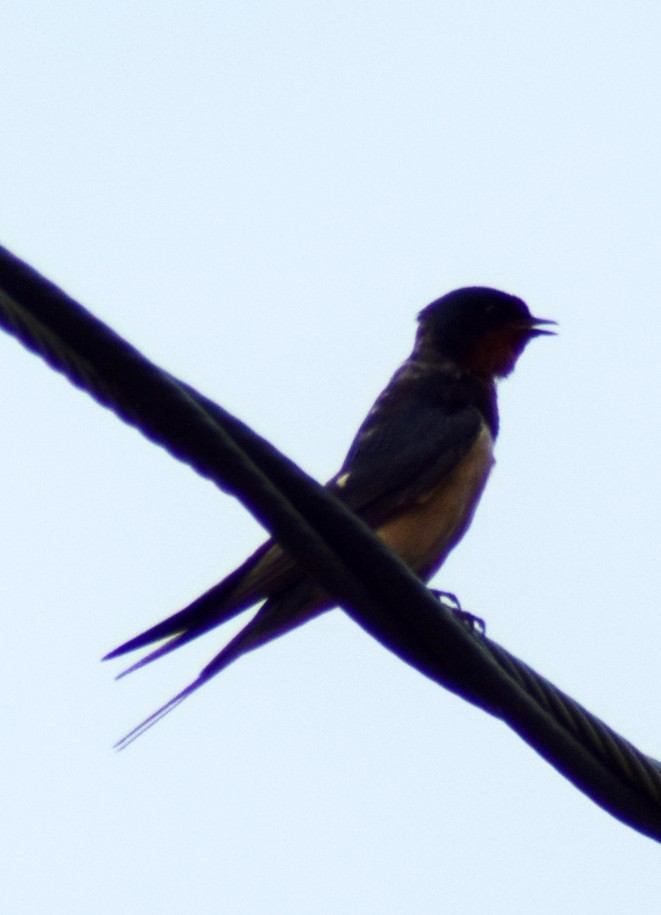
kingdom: Animalia
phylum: Chordata
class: Aves
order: Passeriformes
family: Hirundinidae
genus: Hirundo
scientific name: Hirundo rustica
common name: Barn swallow
